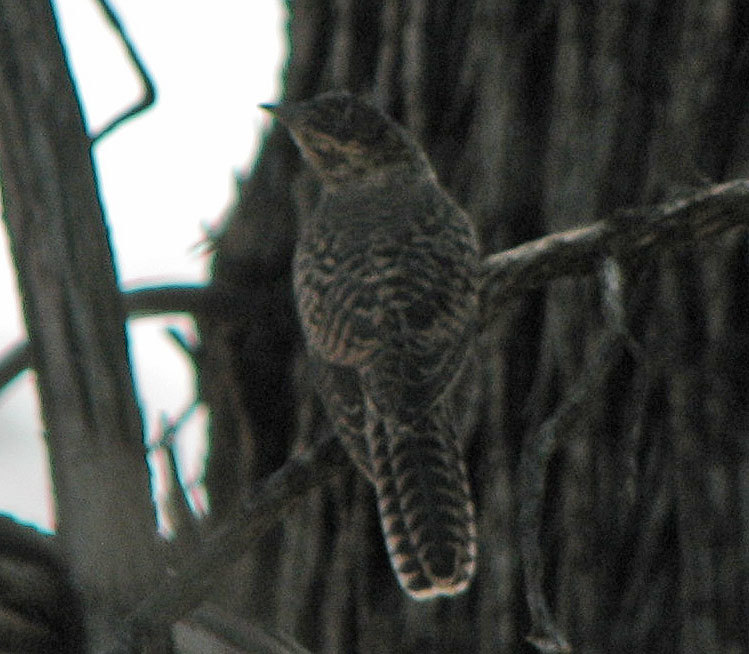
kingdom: Animalia
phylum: Chordata
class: Aves
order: Cuculiformes
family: Cuculidae
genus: Cacomantis
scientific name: Cacomantis variolosus
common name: Brush cuckoo
